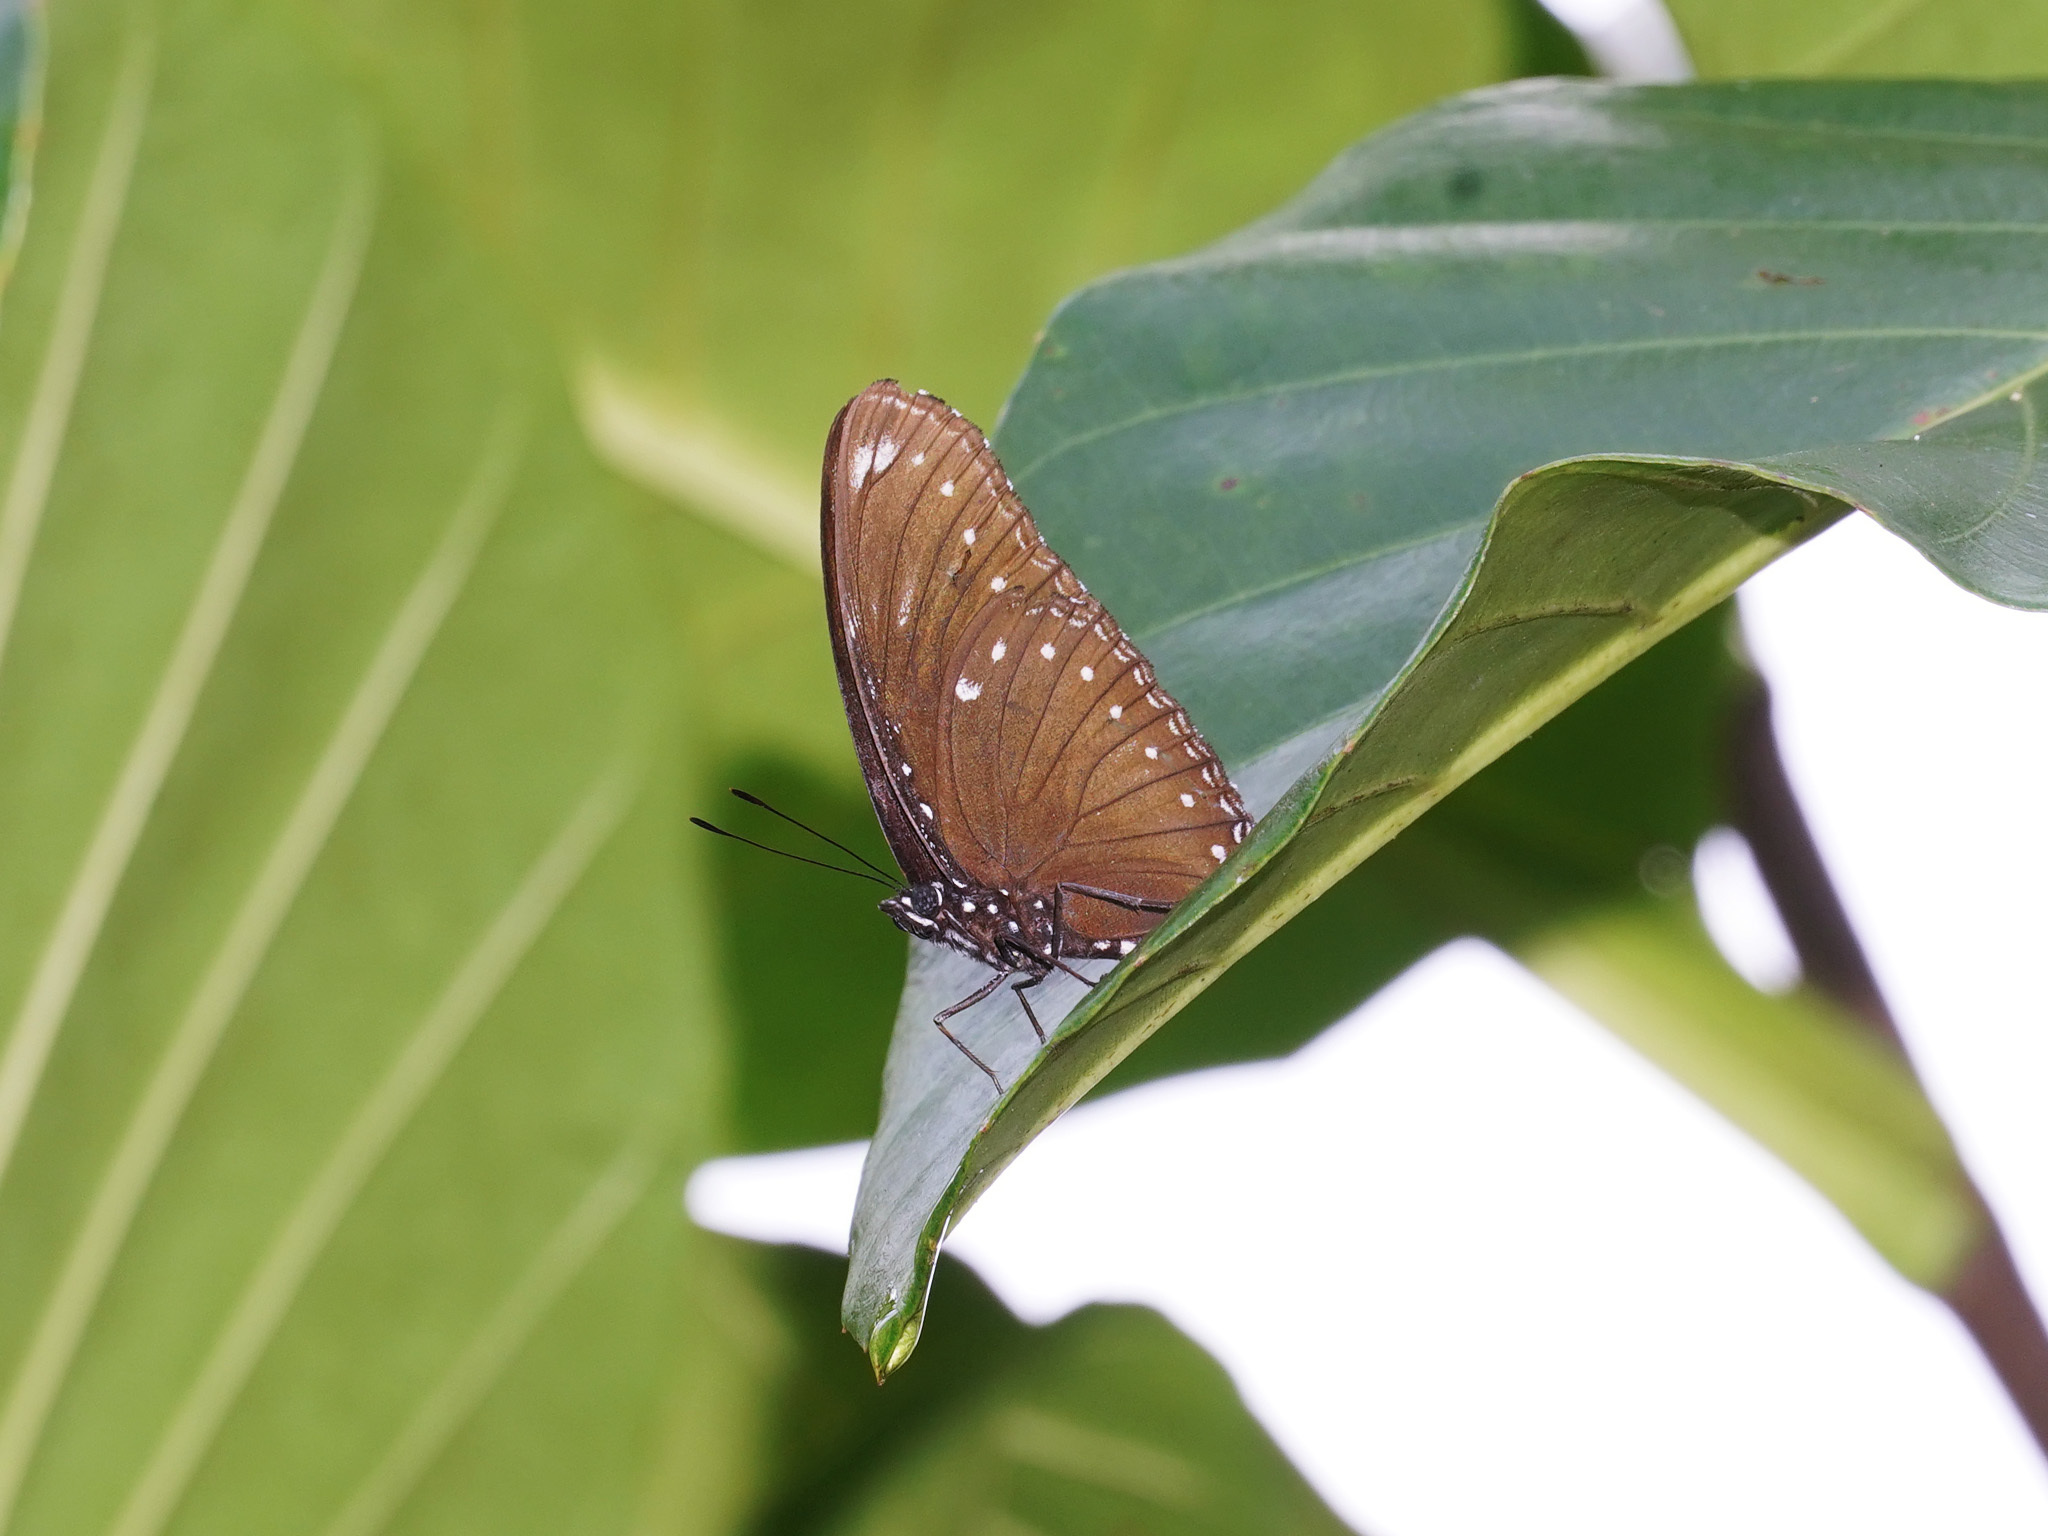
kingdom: Animalia
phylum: Arthropoda
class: Insecta
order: Lepidoptera
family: Nymphalidae
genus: Hypolimnas
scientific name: Hypolimnas anomala
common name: Malayan eggfly
